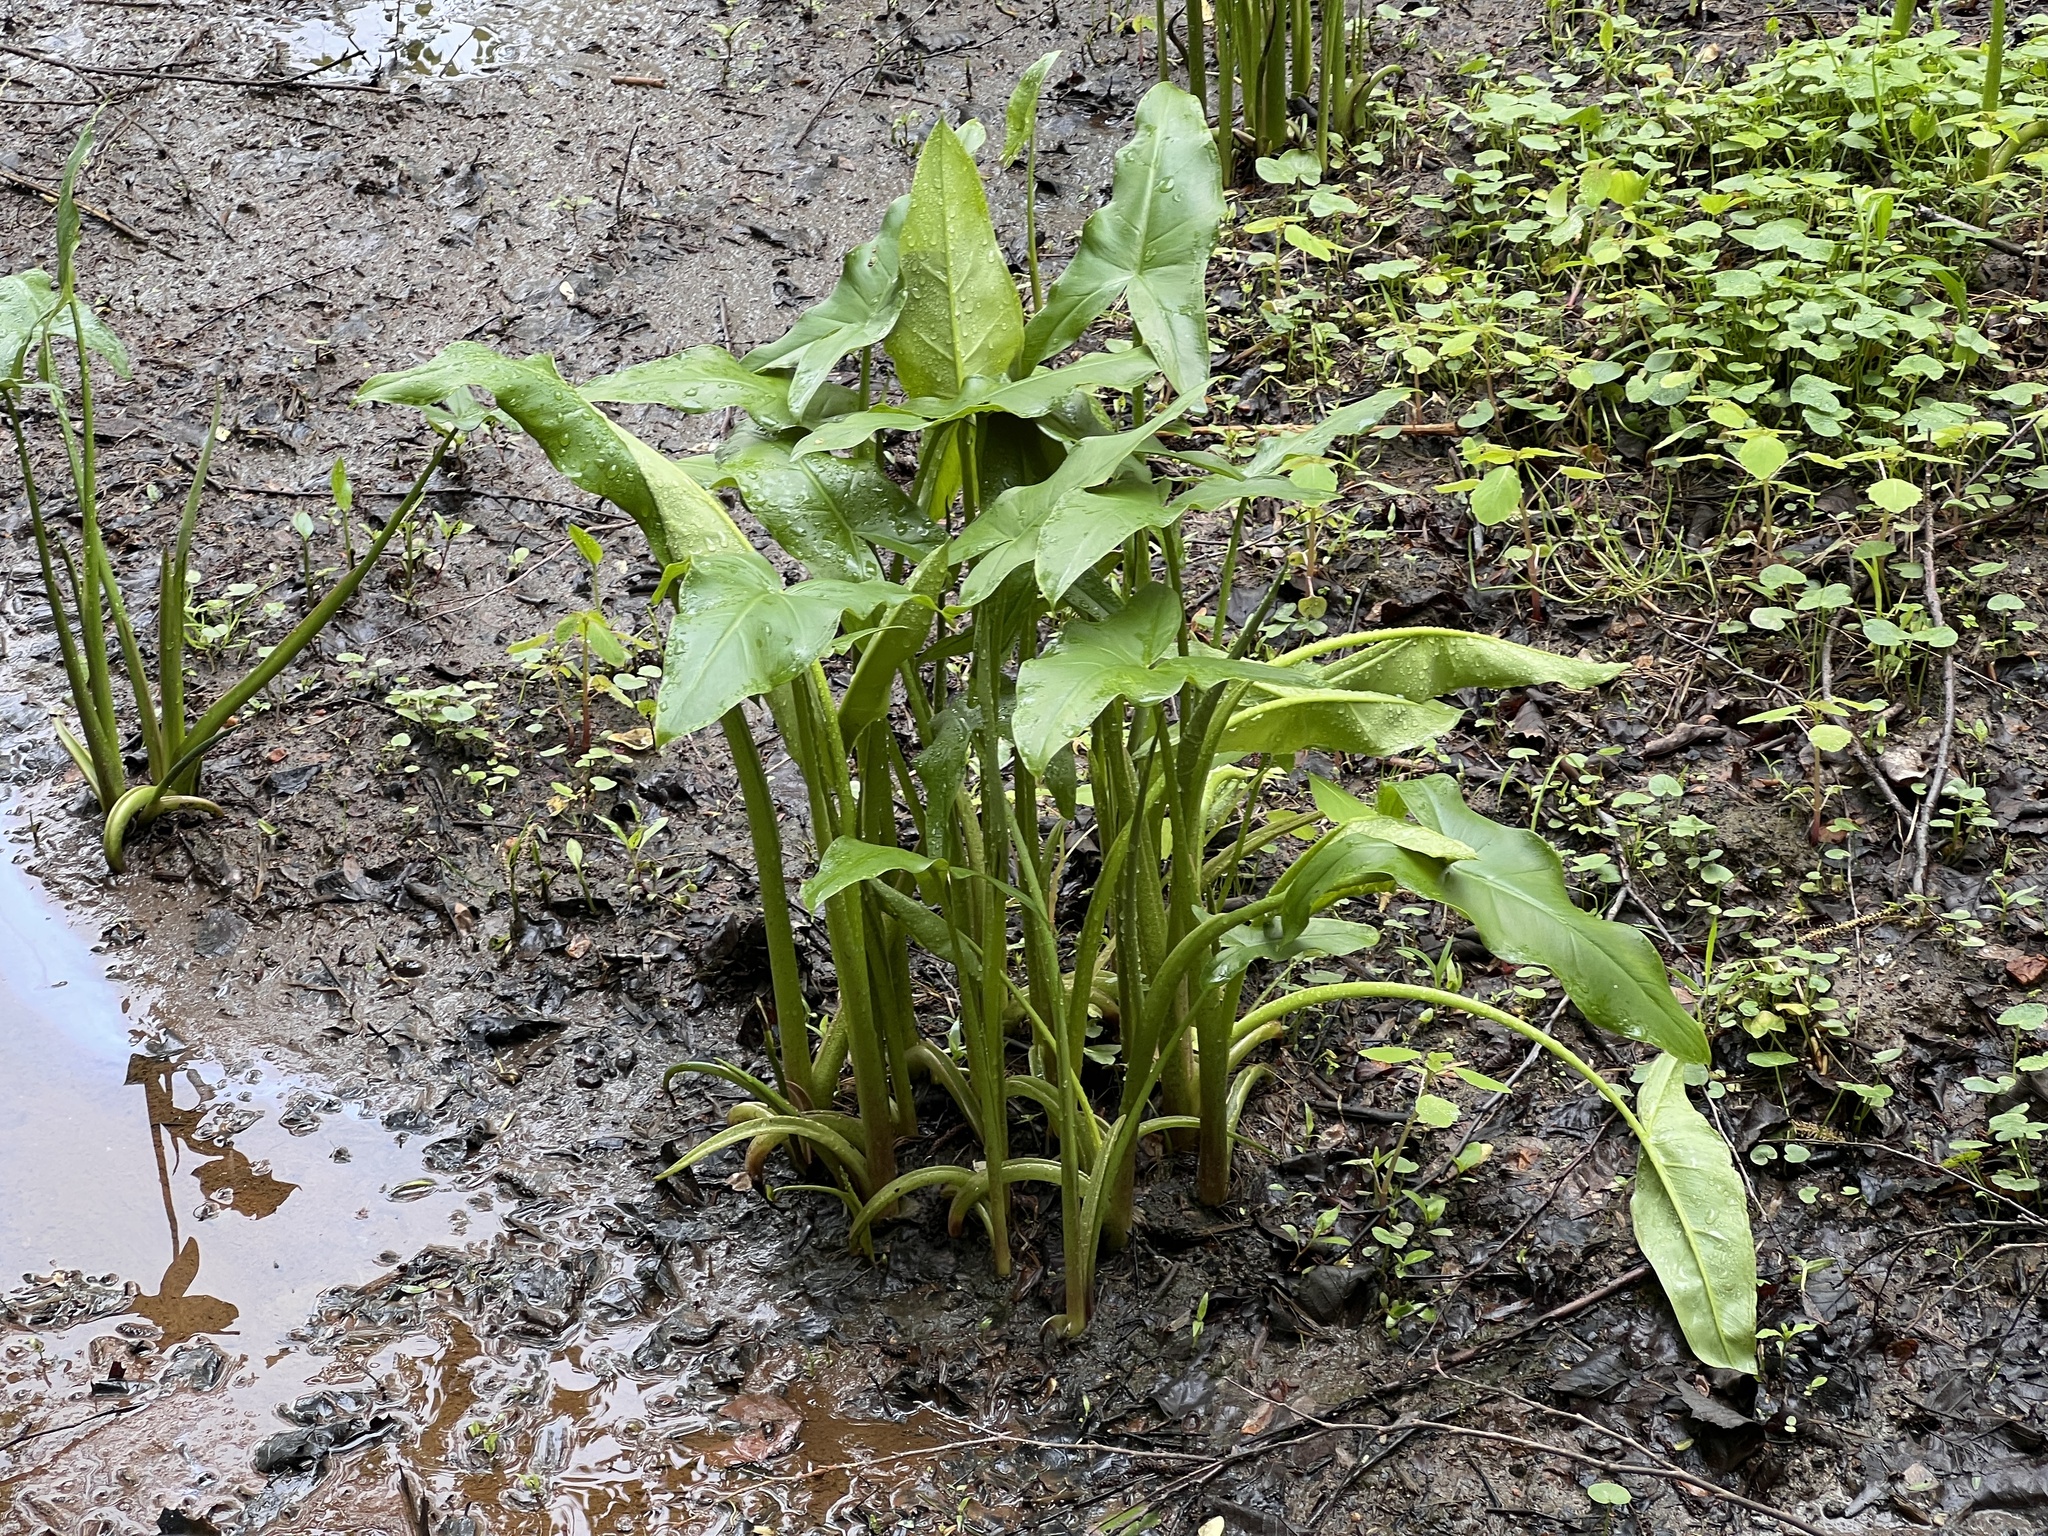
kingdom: Plantae
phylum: Tracheophyta
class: Liliopsida
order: Alismatales
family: Araceae
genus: Peltandra
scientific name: Peltandra virginica
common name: Arrow arum
